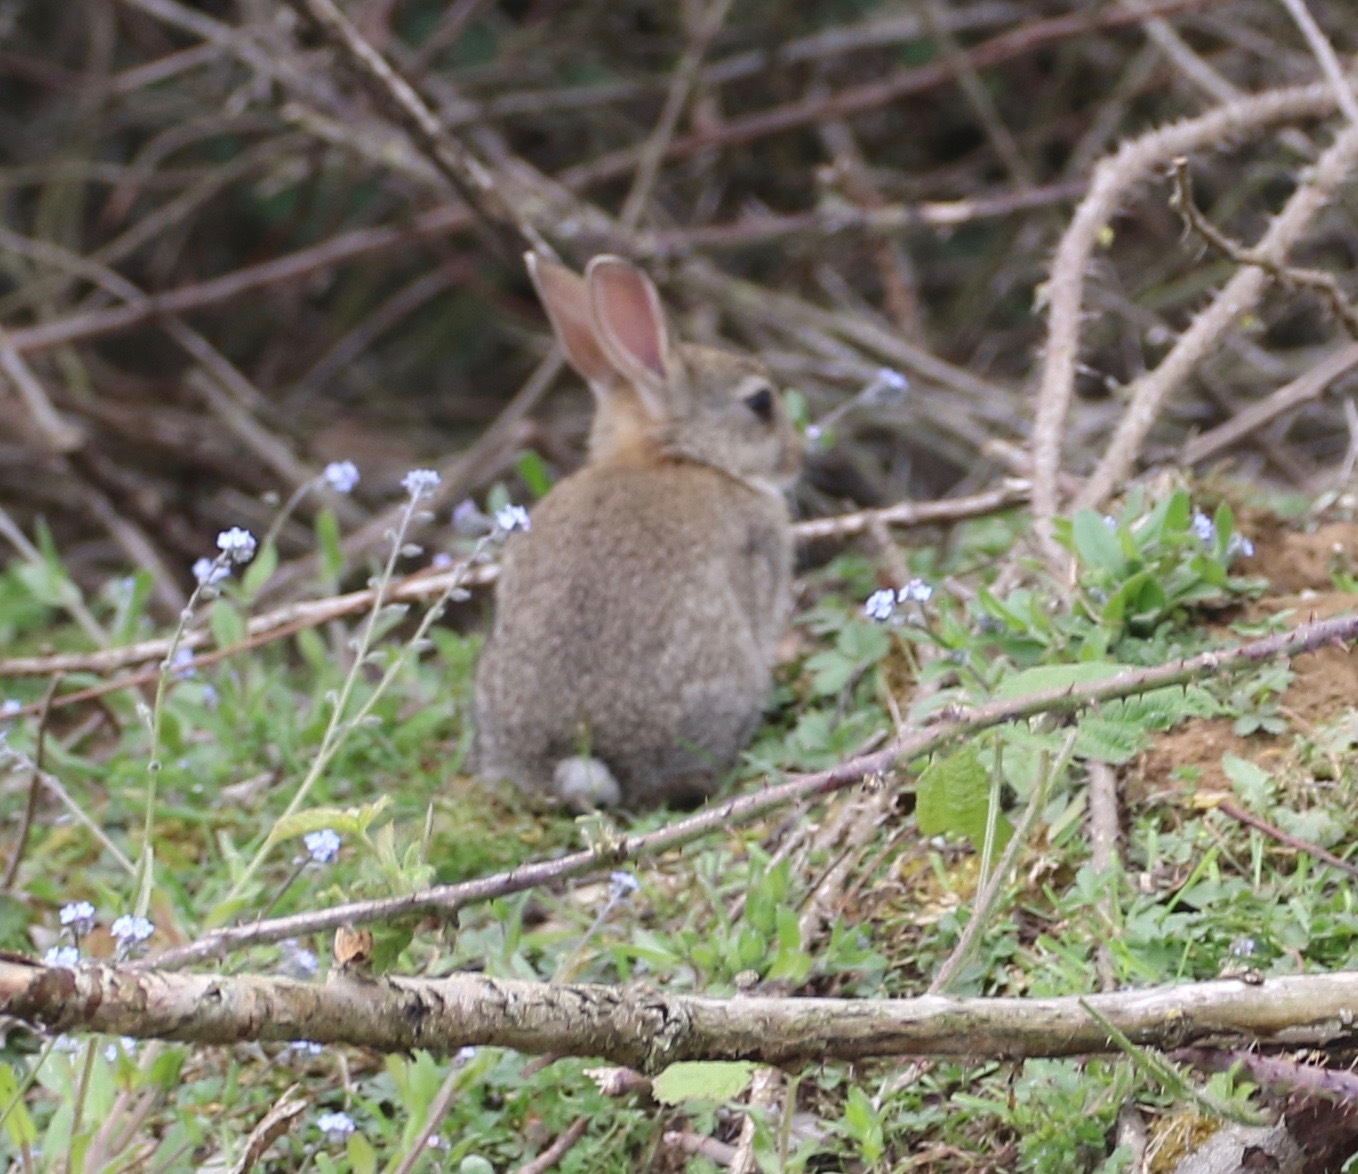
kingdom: Animalia
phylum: Chordata
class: Mammalia
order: Lagomorpha
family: Leporidae
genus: Oryctolagus
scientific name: Oryctolagus cuniculus
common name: European rabbit
